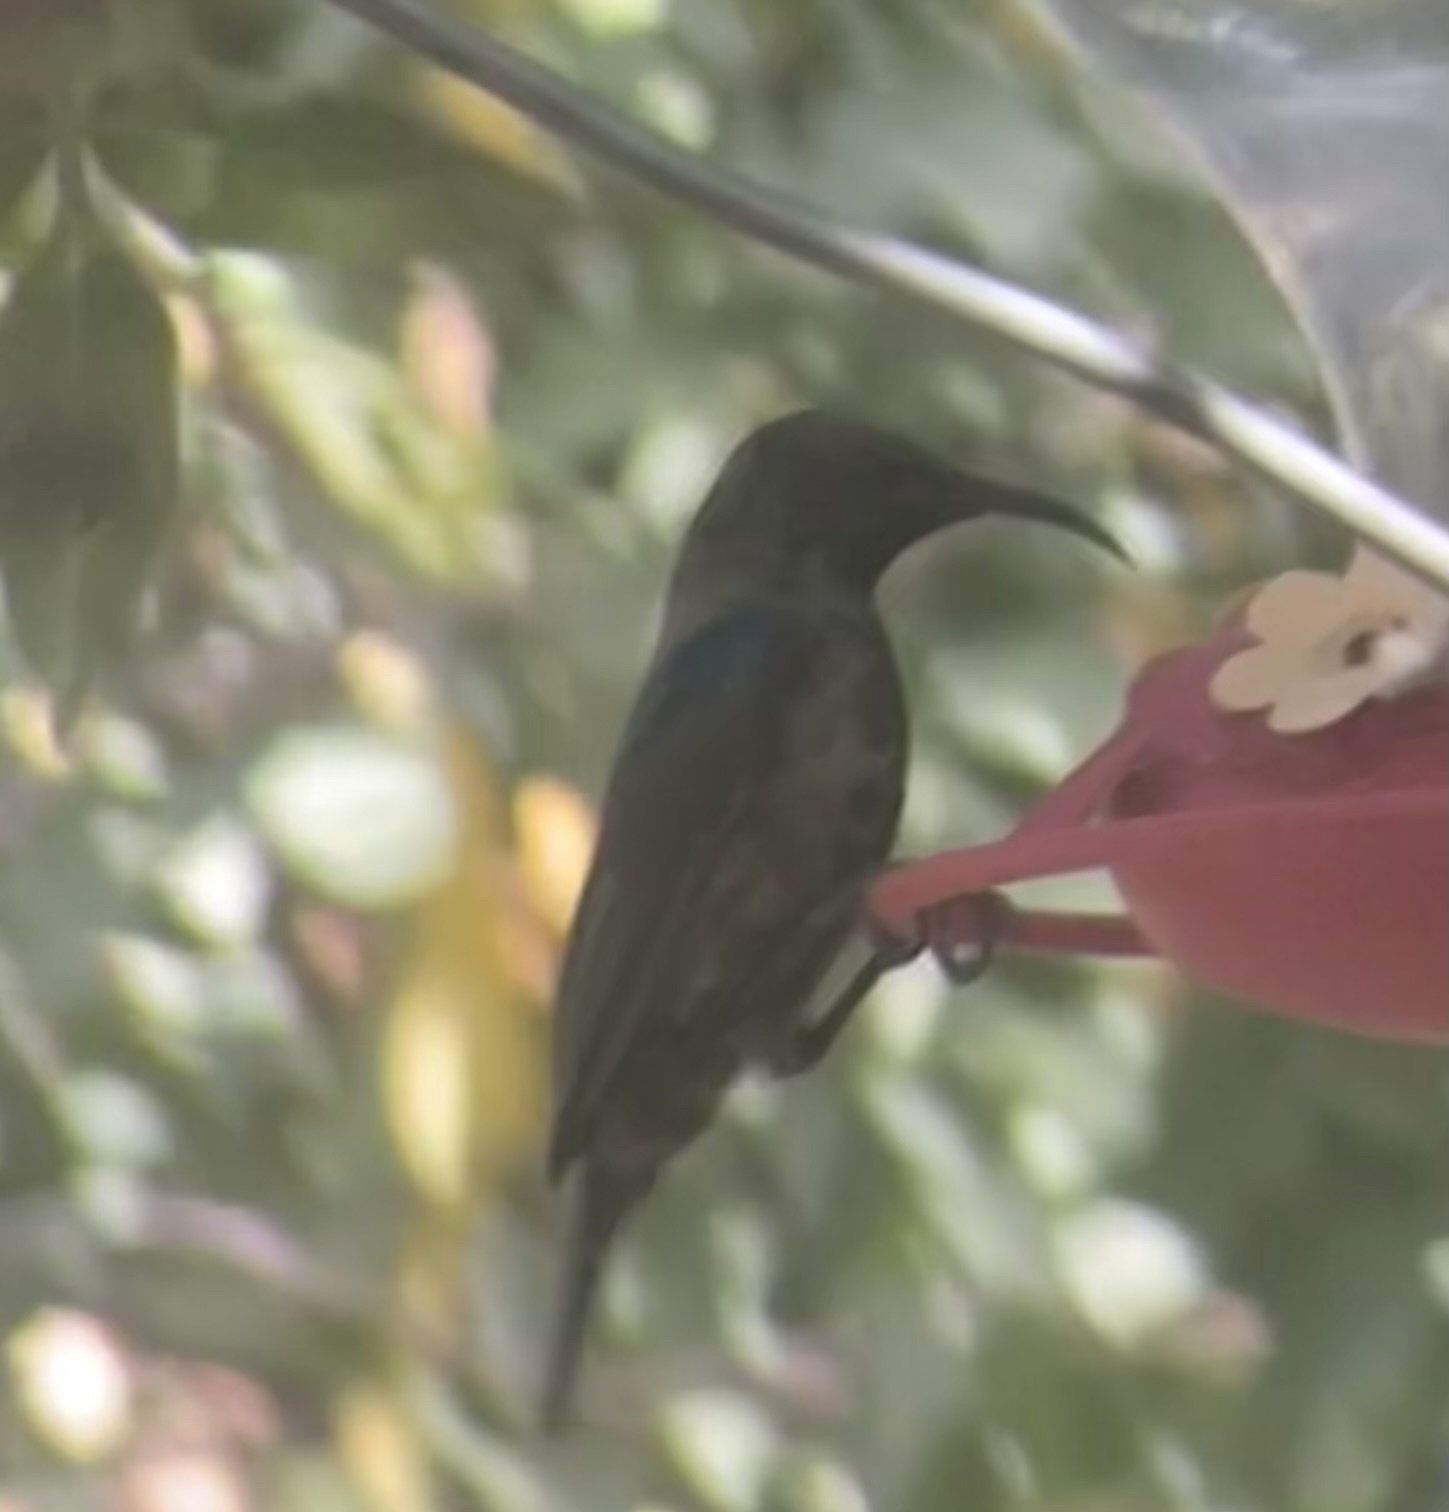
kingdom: Animalia
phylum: Chordata
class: Aves
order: Passeriformes
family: Nectariniidae
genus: Cinnyris
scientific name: Cinnyris osea
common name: Palestine sunbird
